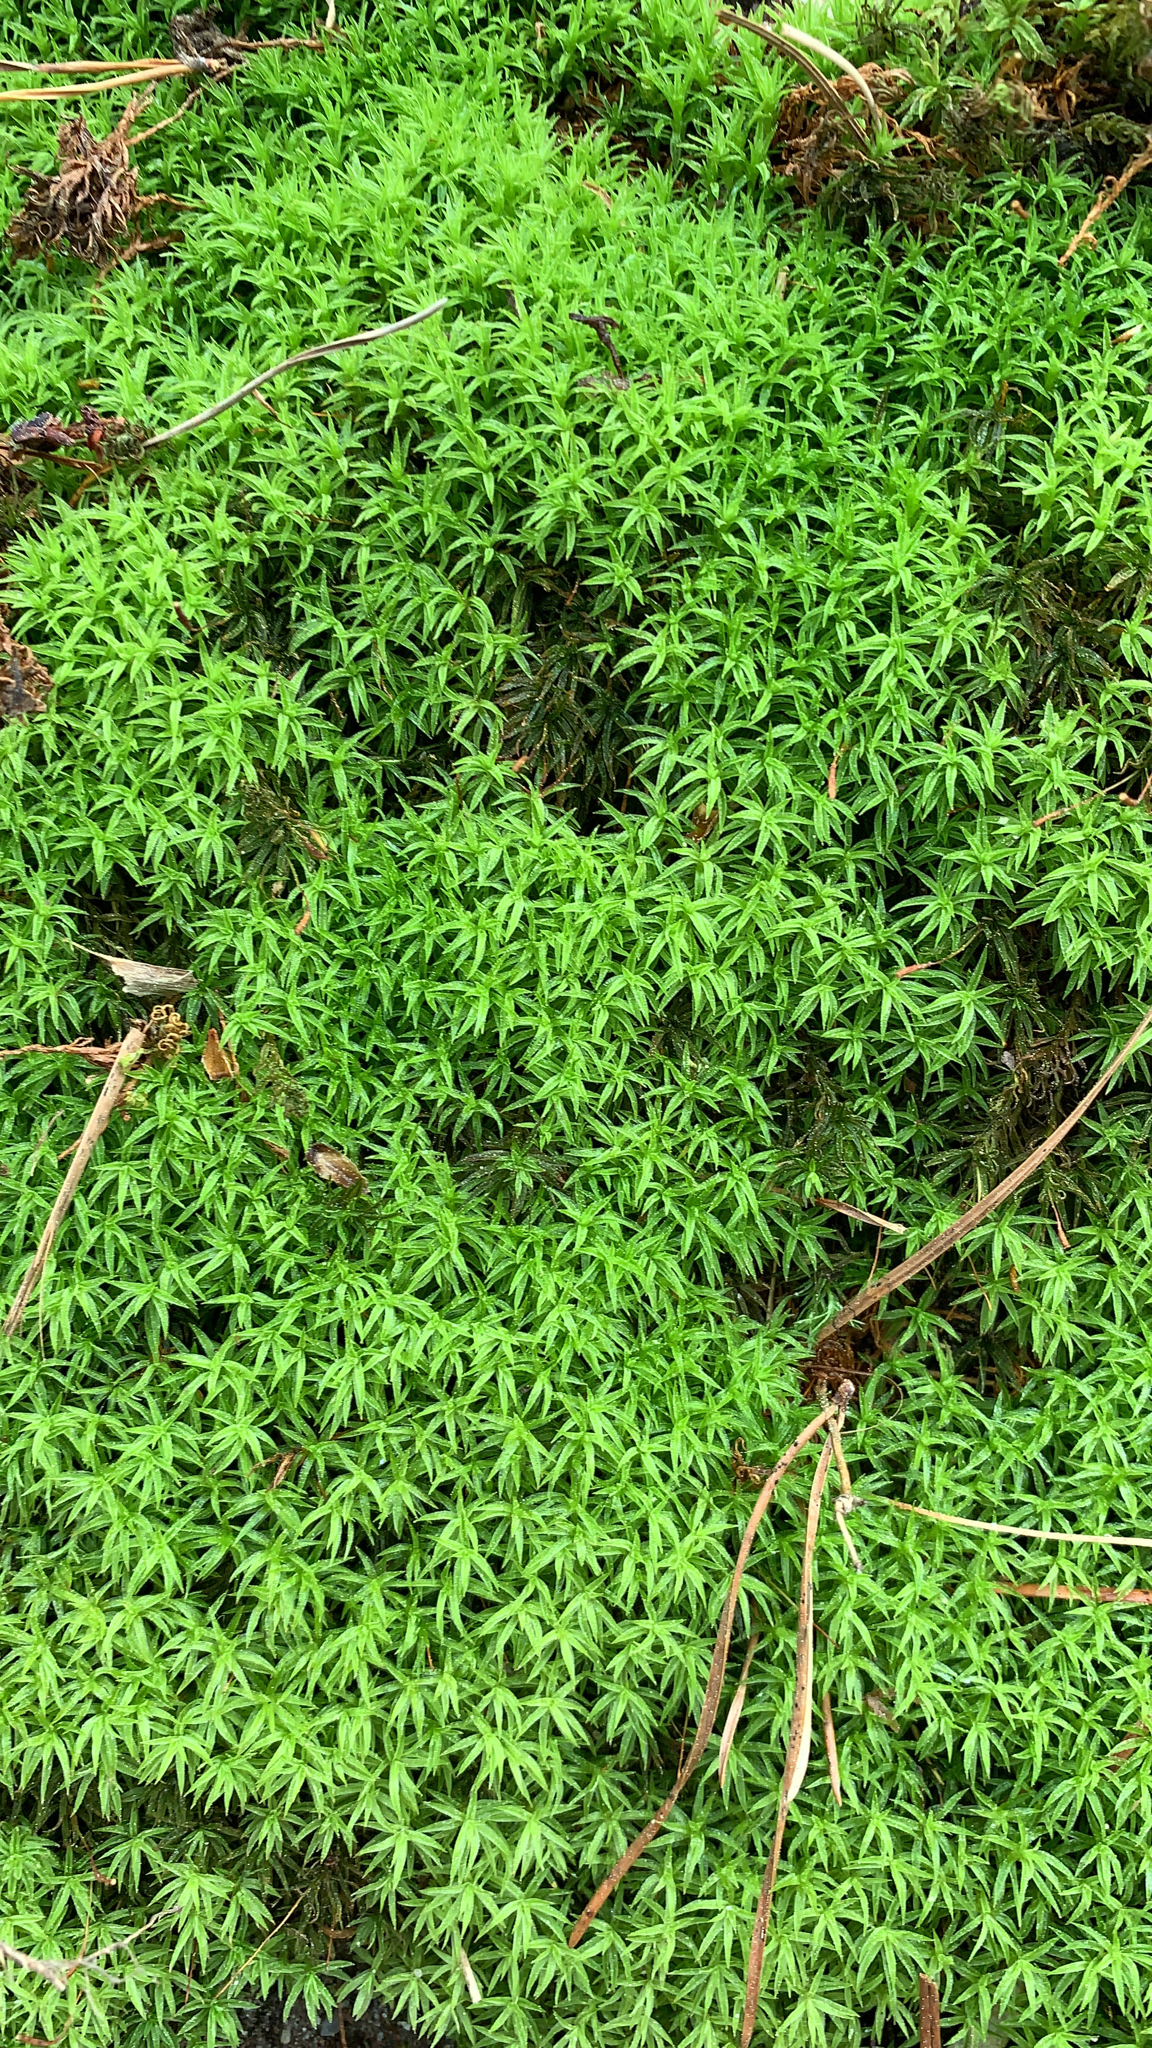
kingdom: Plantae
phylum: Bryophyta
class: Polytrichopsida
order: Polytrichales
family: Polytrichaceae
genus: Atrichum
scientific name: Atrichum
